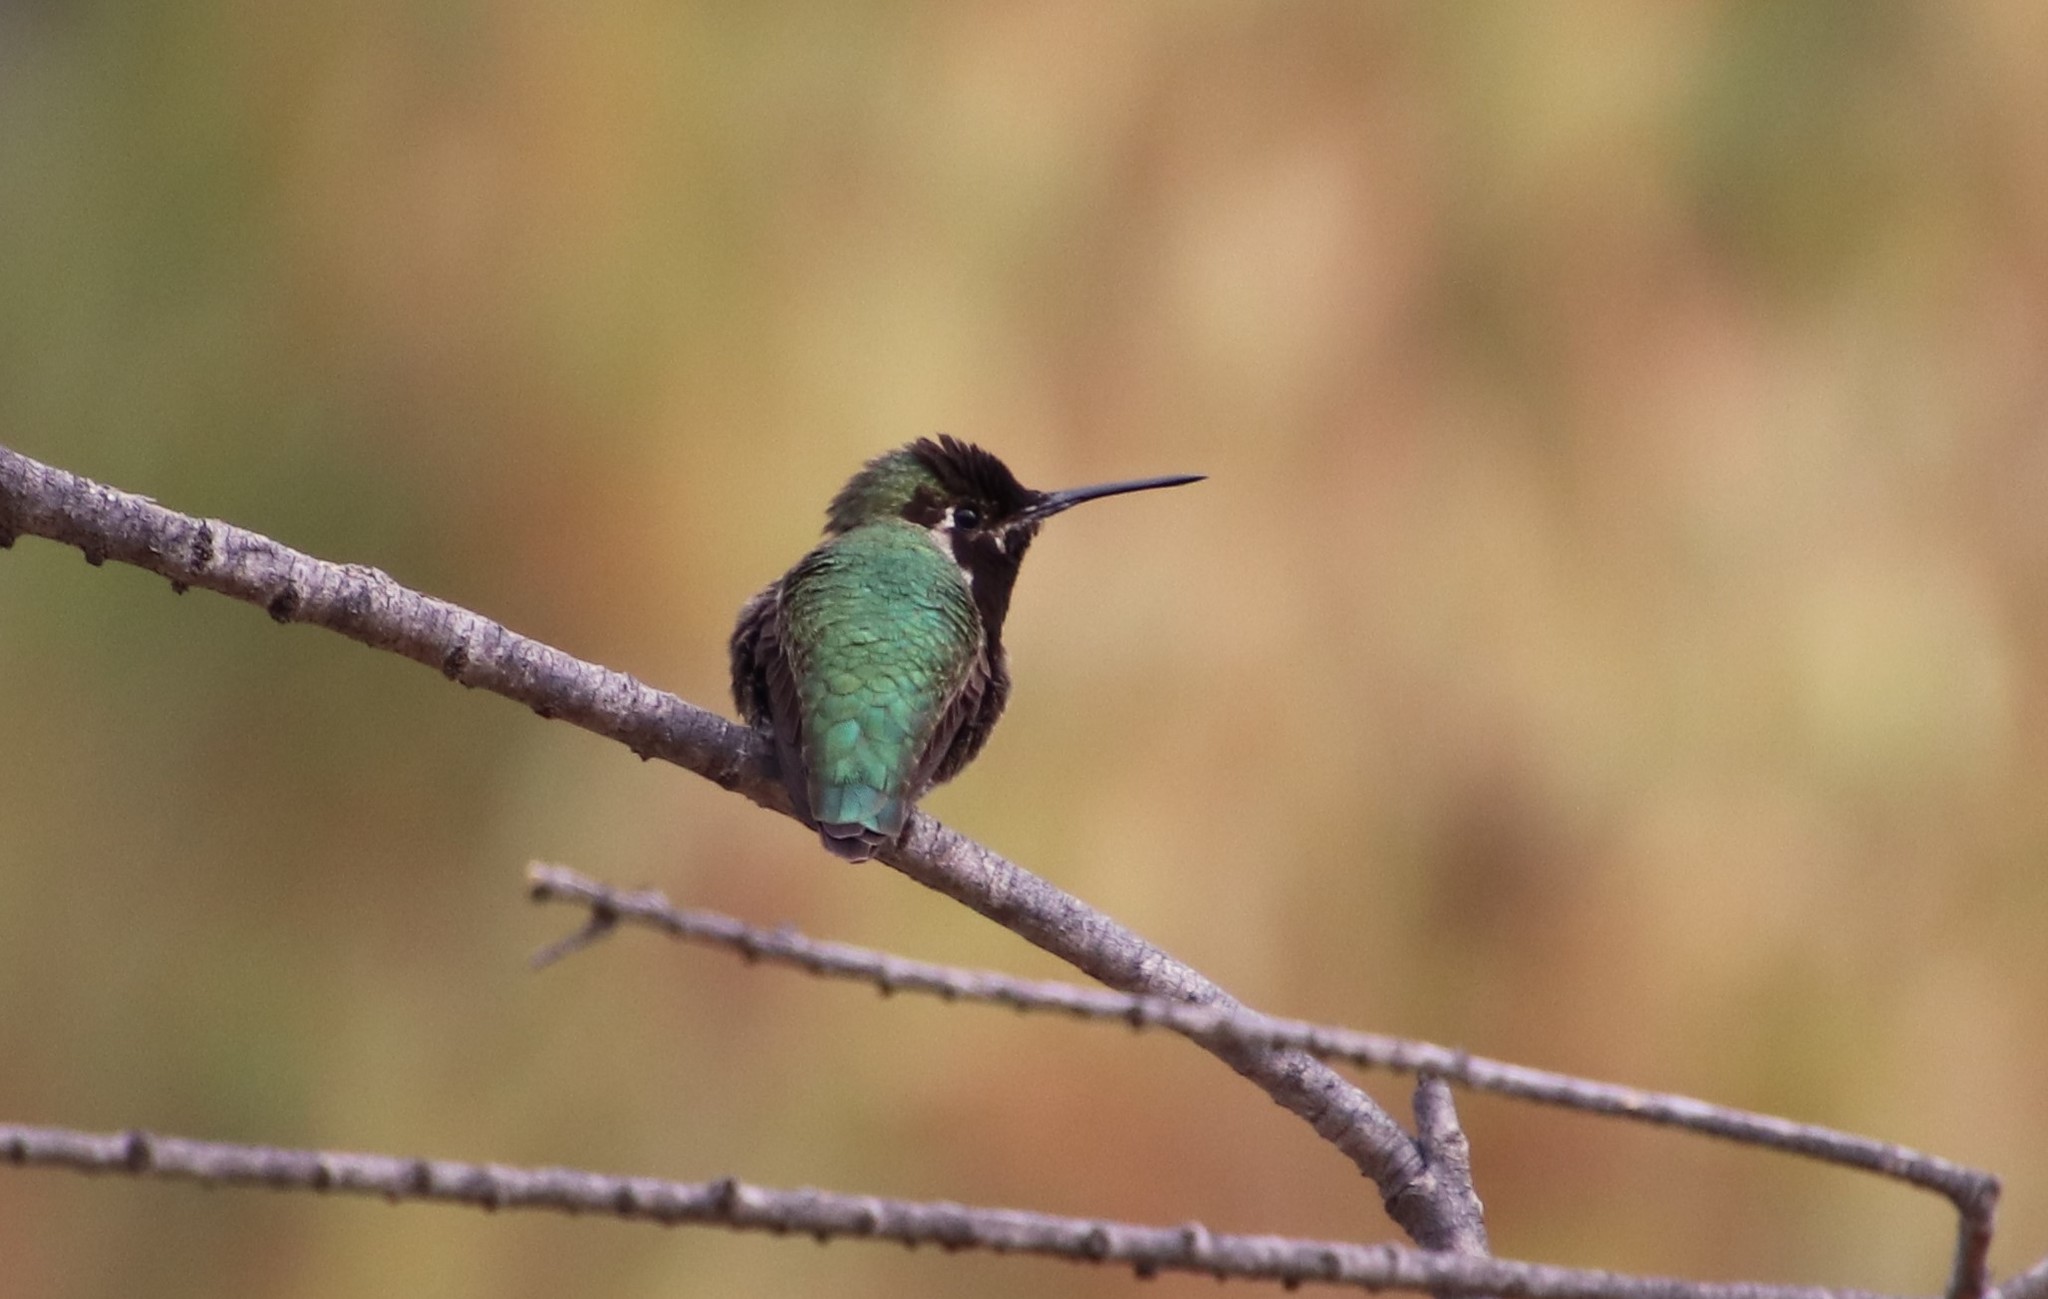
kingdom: Animalia
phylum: Chordata
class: Aves
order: Apodiformes
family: Trochilidae
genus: Calypte
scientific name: Calypte anna
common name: Anna's hummingbird
